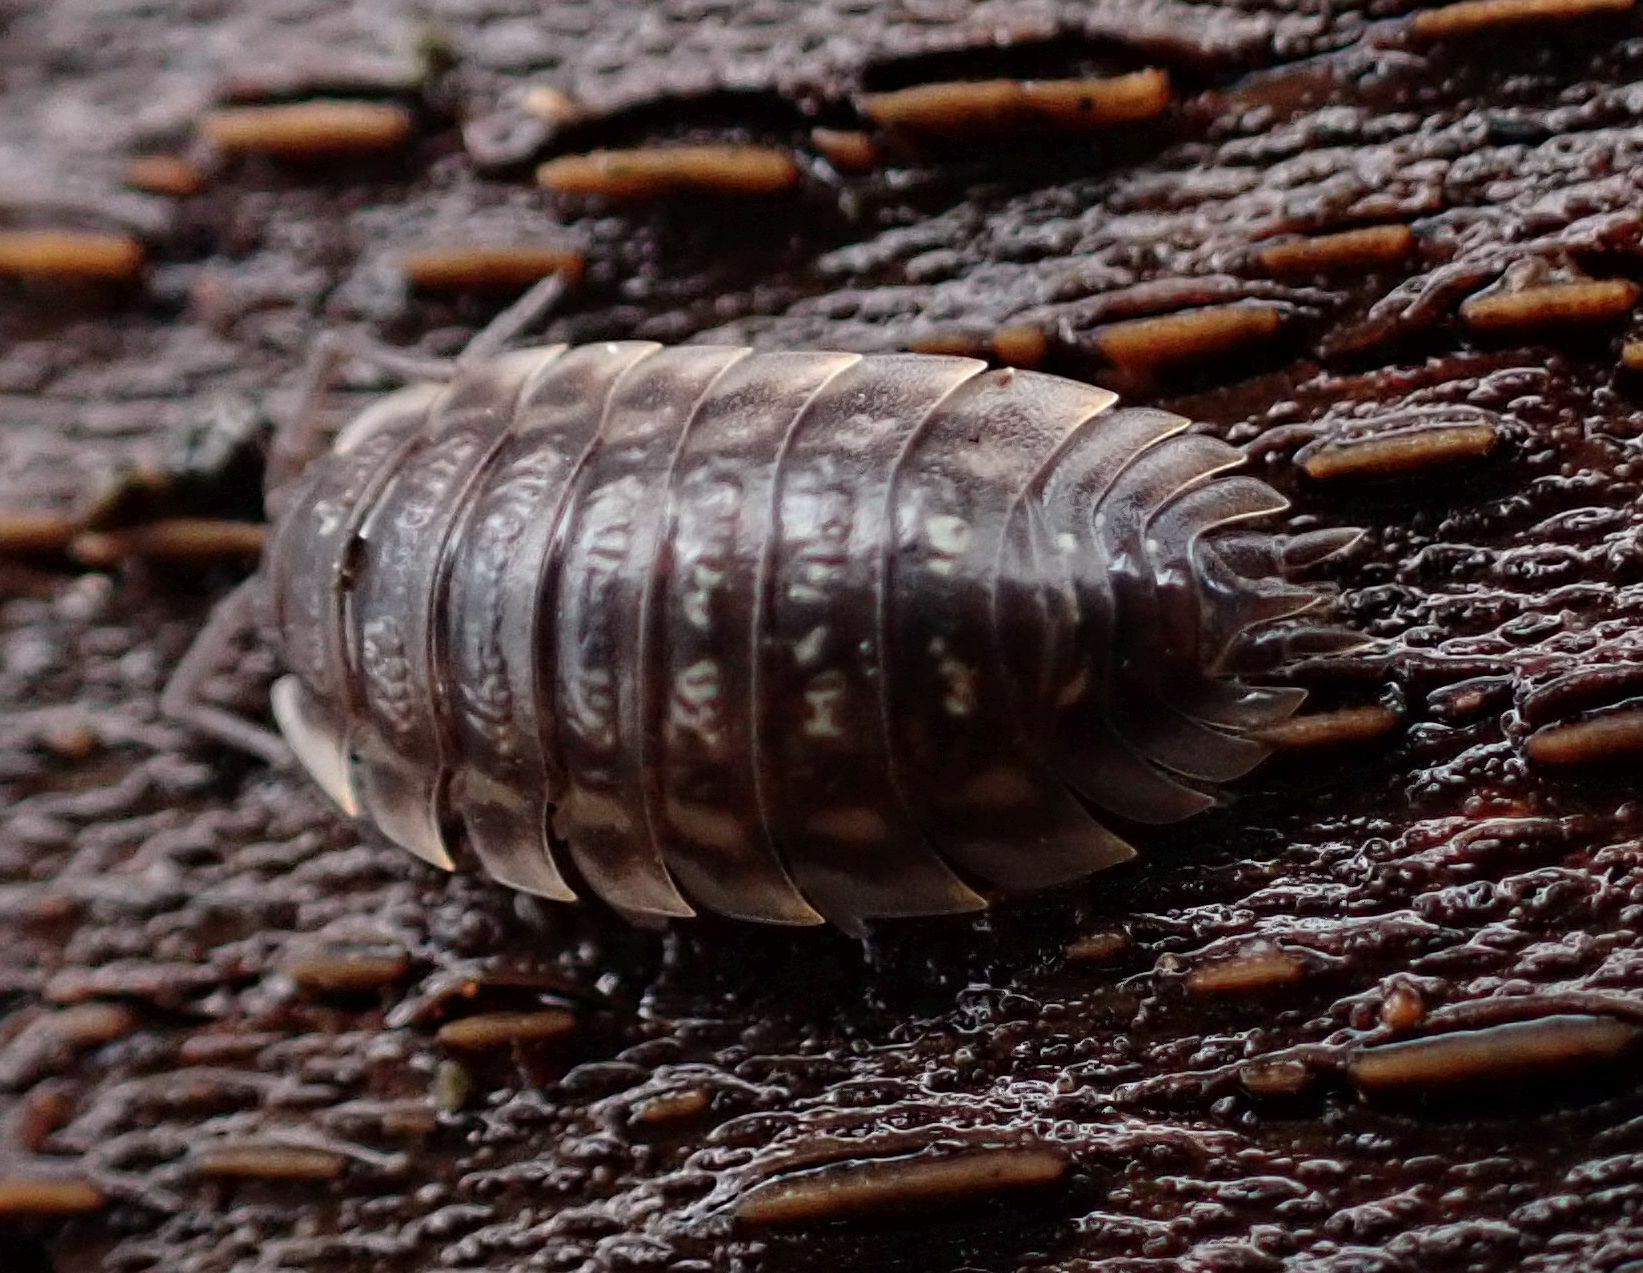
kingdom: Animalia
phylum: Arthropoda
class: Malacostraca
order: Isopoda
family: Oniscidae
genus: Oniscus
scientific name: Oniscus asellus
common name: Common shiny woodlouse
